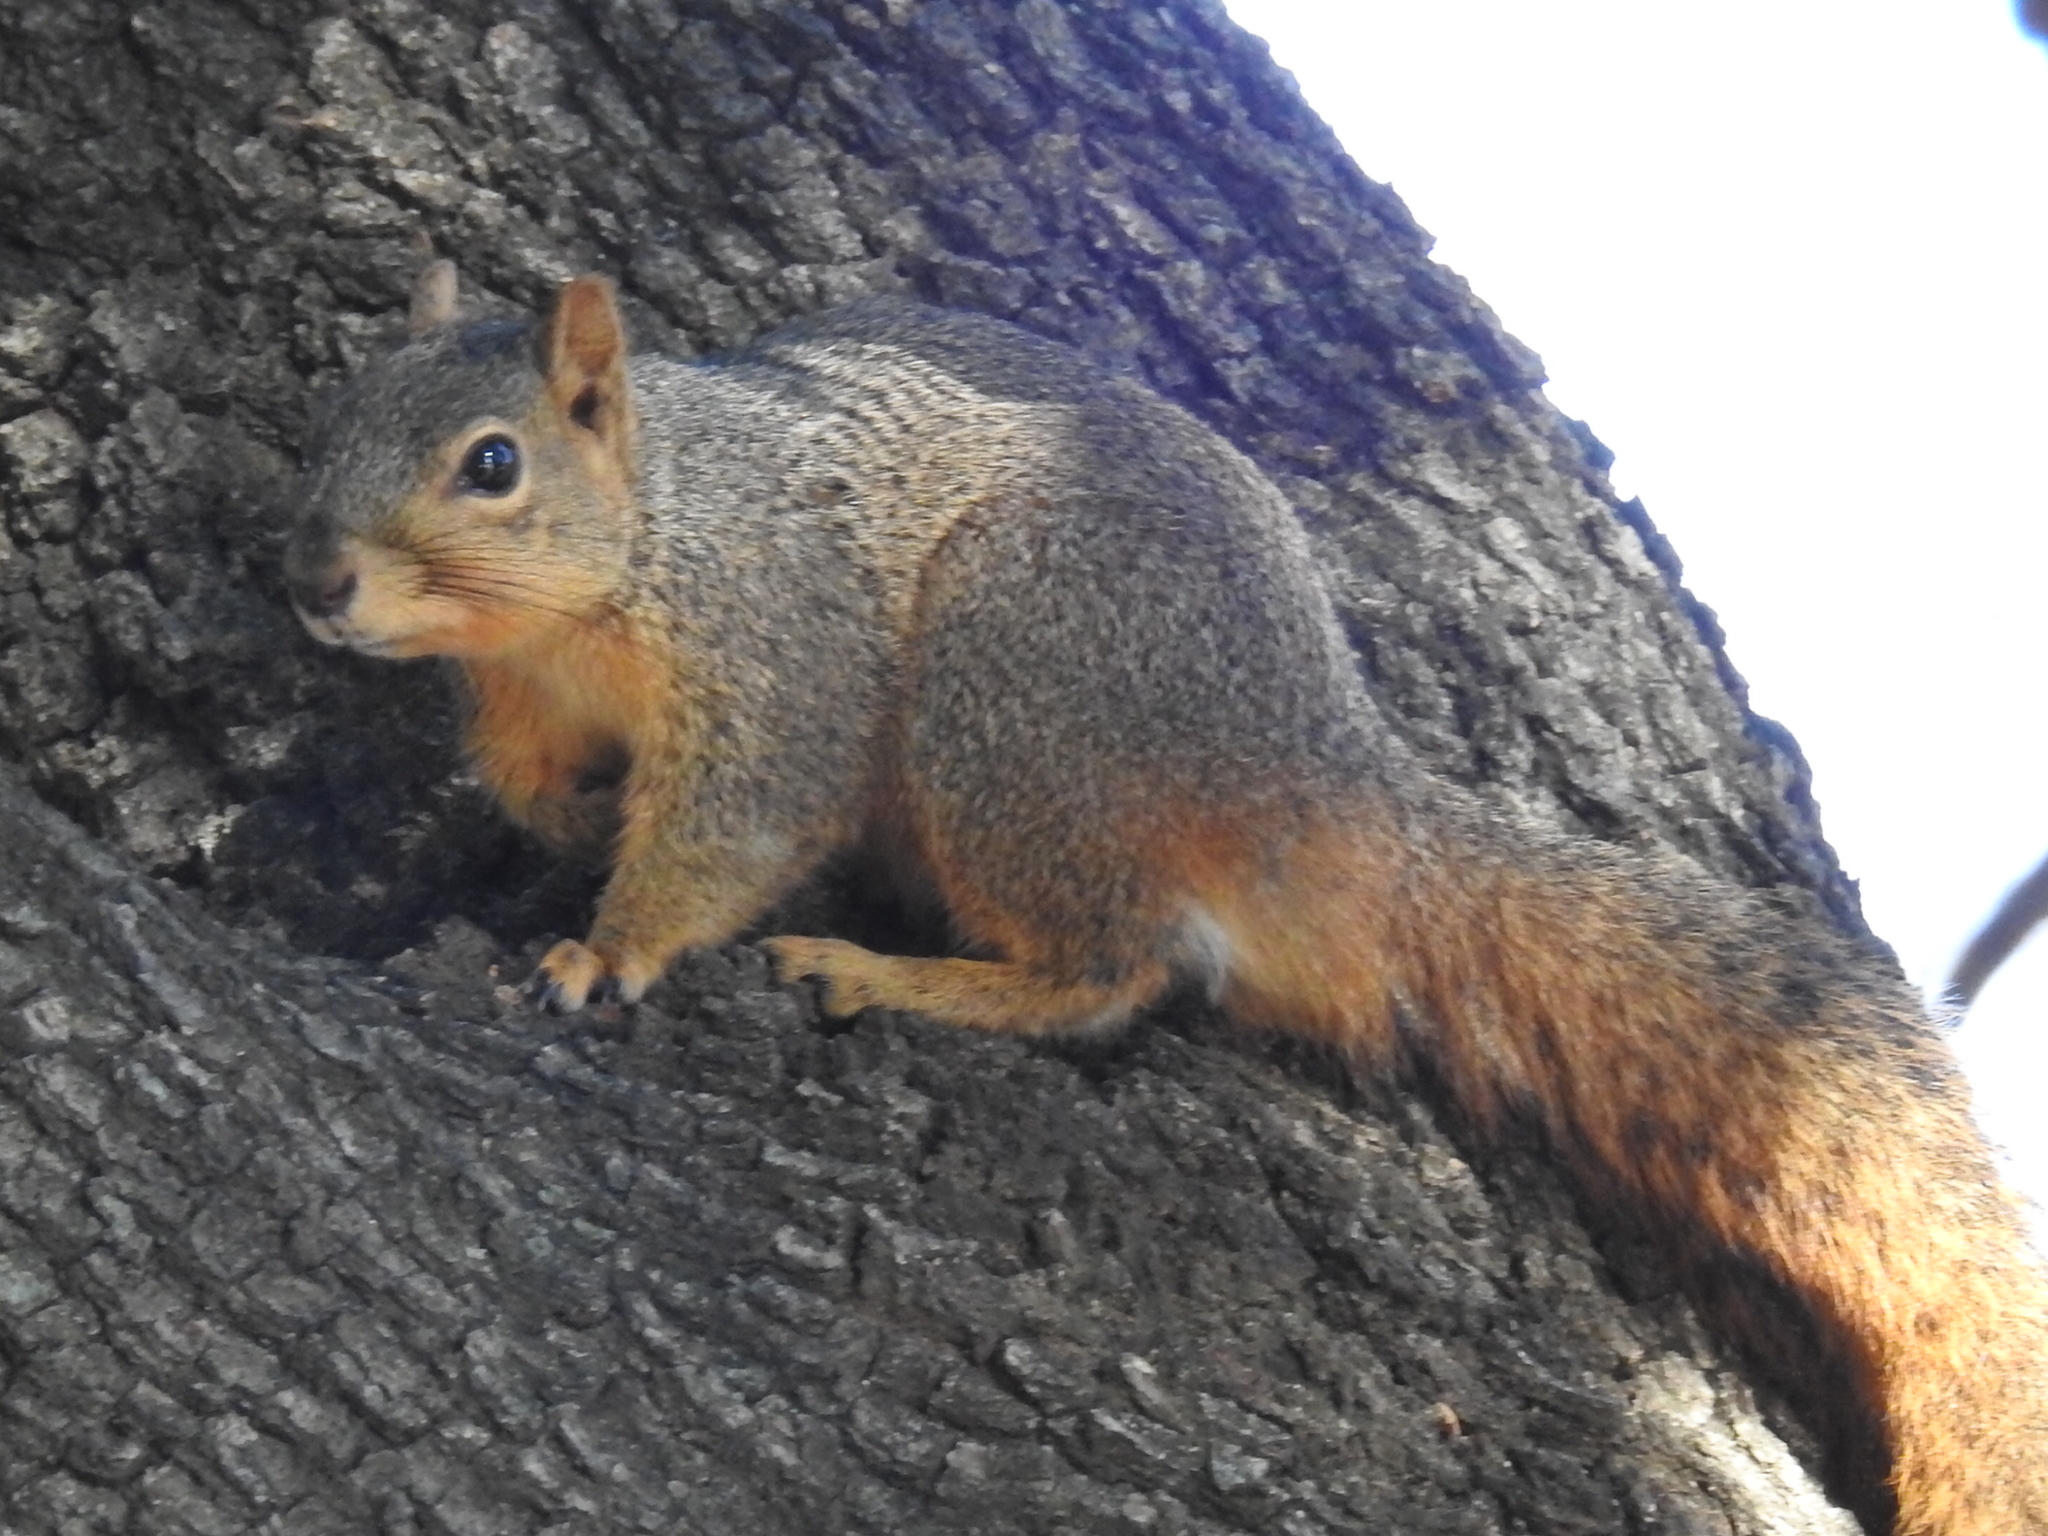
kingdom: Animalia
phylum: Chordata
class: Mammalia
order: Rodentia
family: Sciuridae
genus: Sciurus
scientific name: Sciurus niger
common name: Fox squirrel
